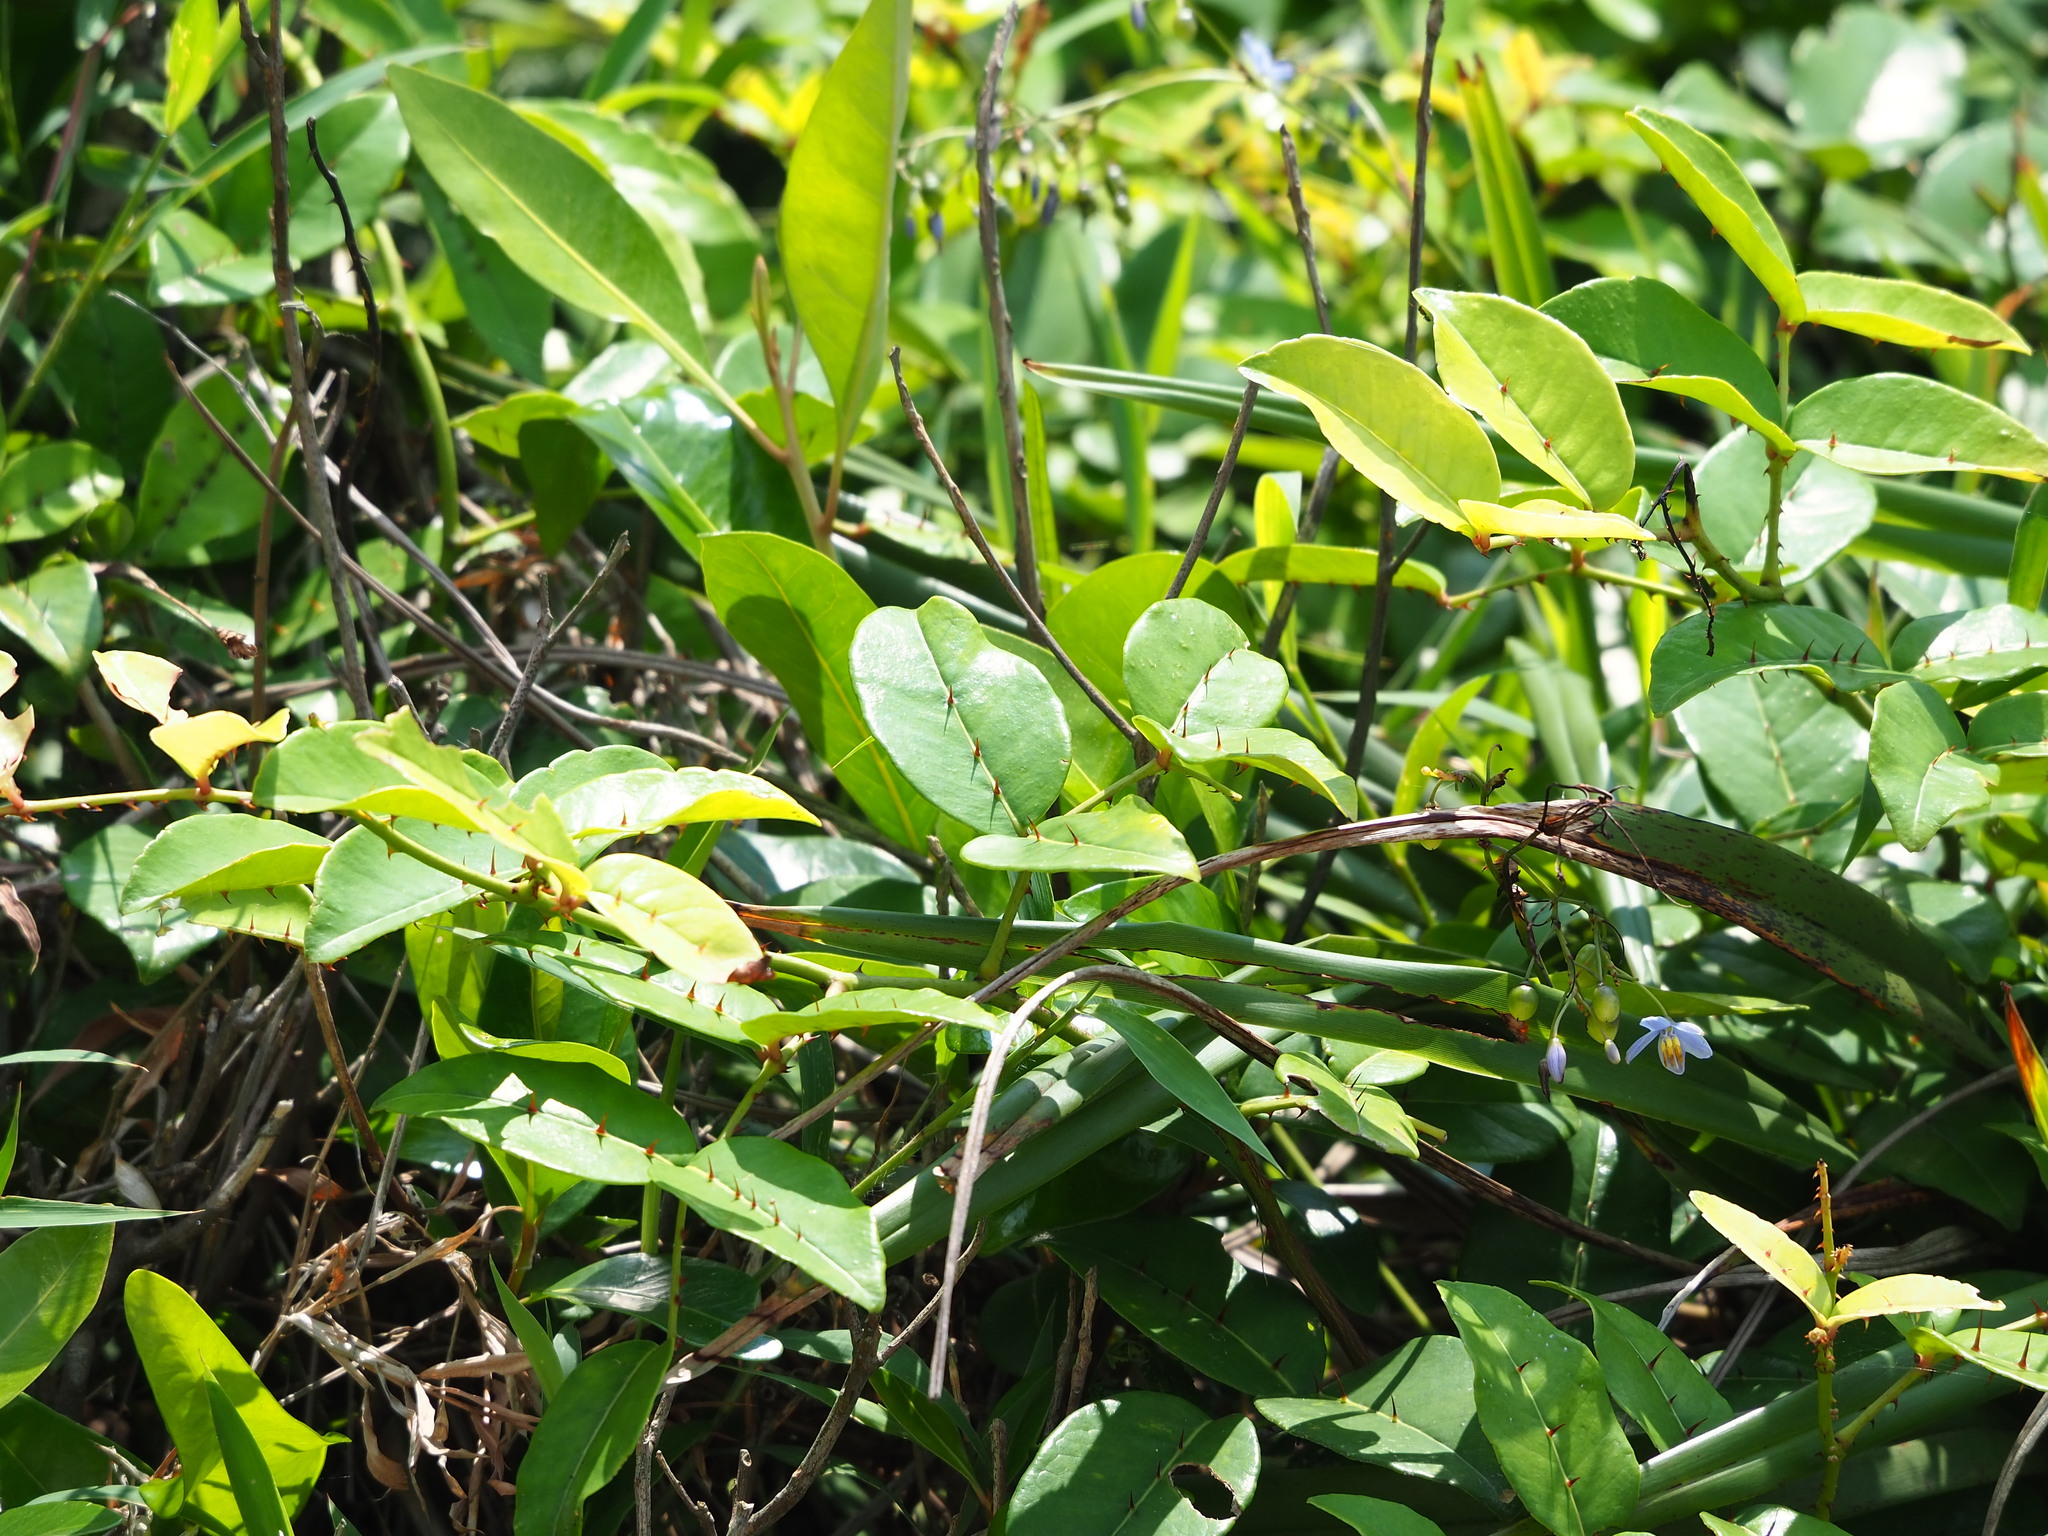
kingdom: Plantae
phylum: Tracheophyta
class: Magnoliopsida
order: Sapindales
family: Rutaceae
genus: Zanthoxylum
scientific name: Zanthoxylum nitidum
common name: Shiny-leaf prickly-ash
